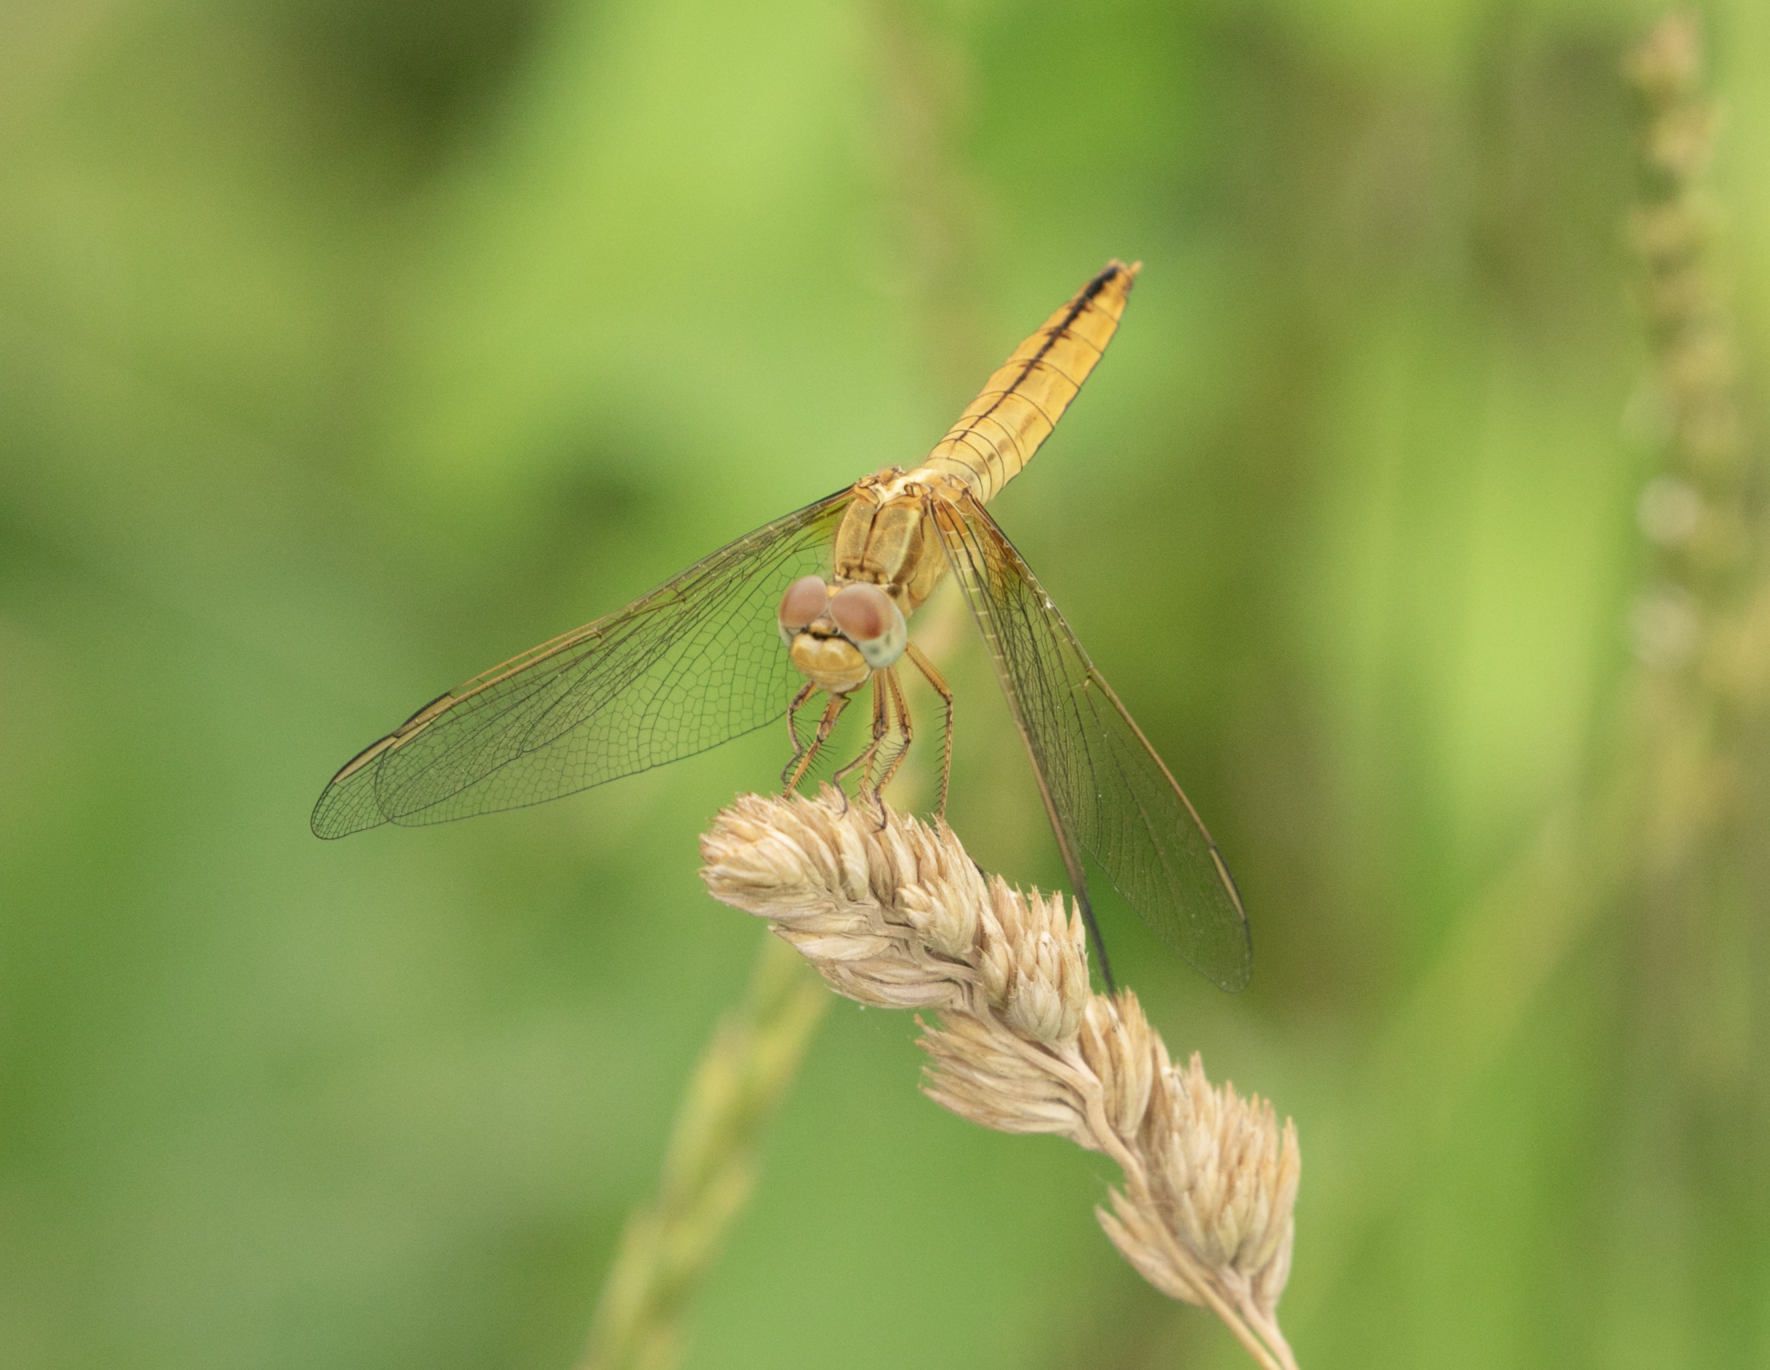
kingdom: Animalia
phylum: Arthropoda
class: Insecta
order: Odonata
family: Libellulidae
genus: Crocothemis
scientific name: Crocothemis erythraea
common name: Scarlet dragonfly
